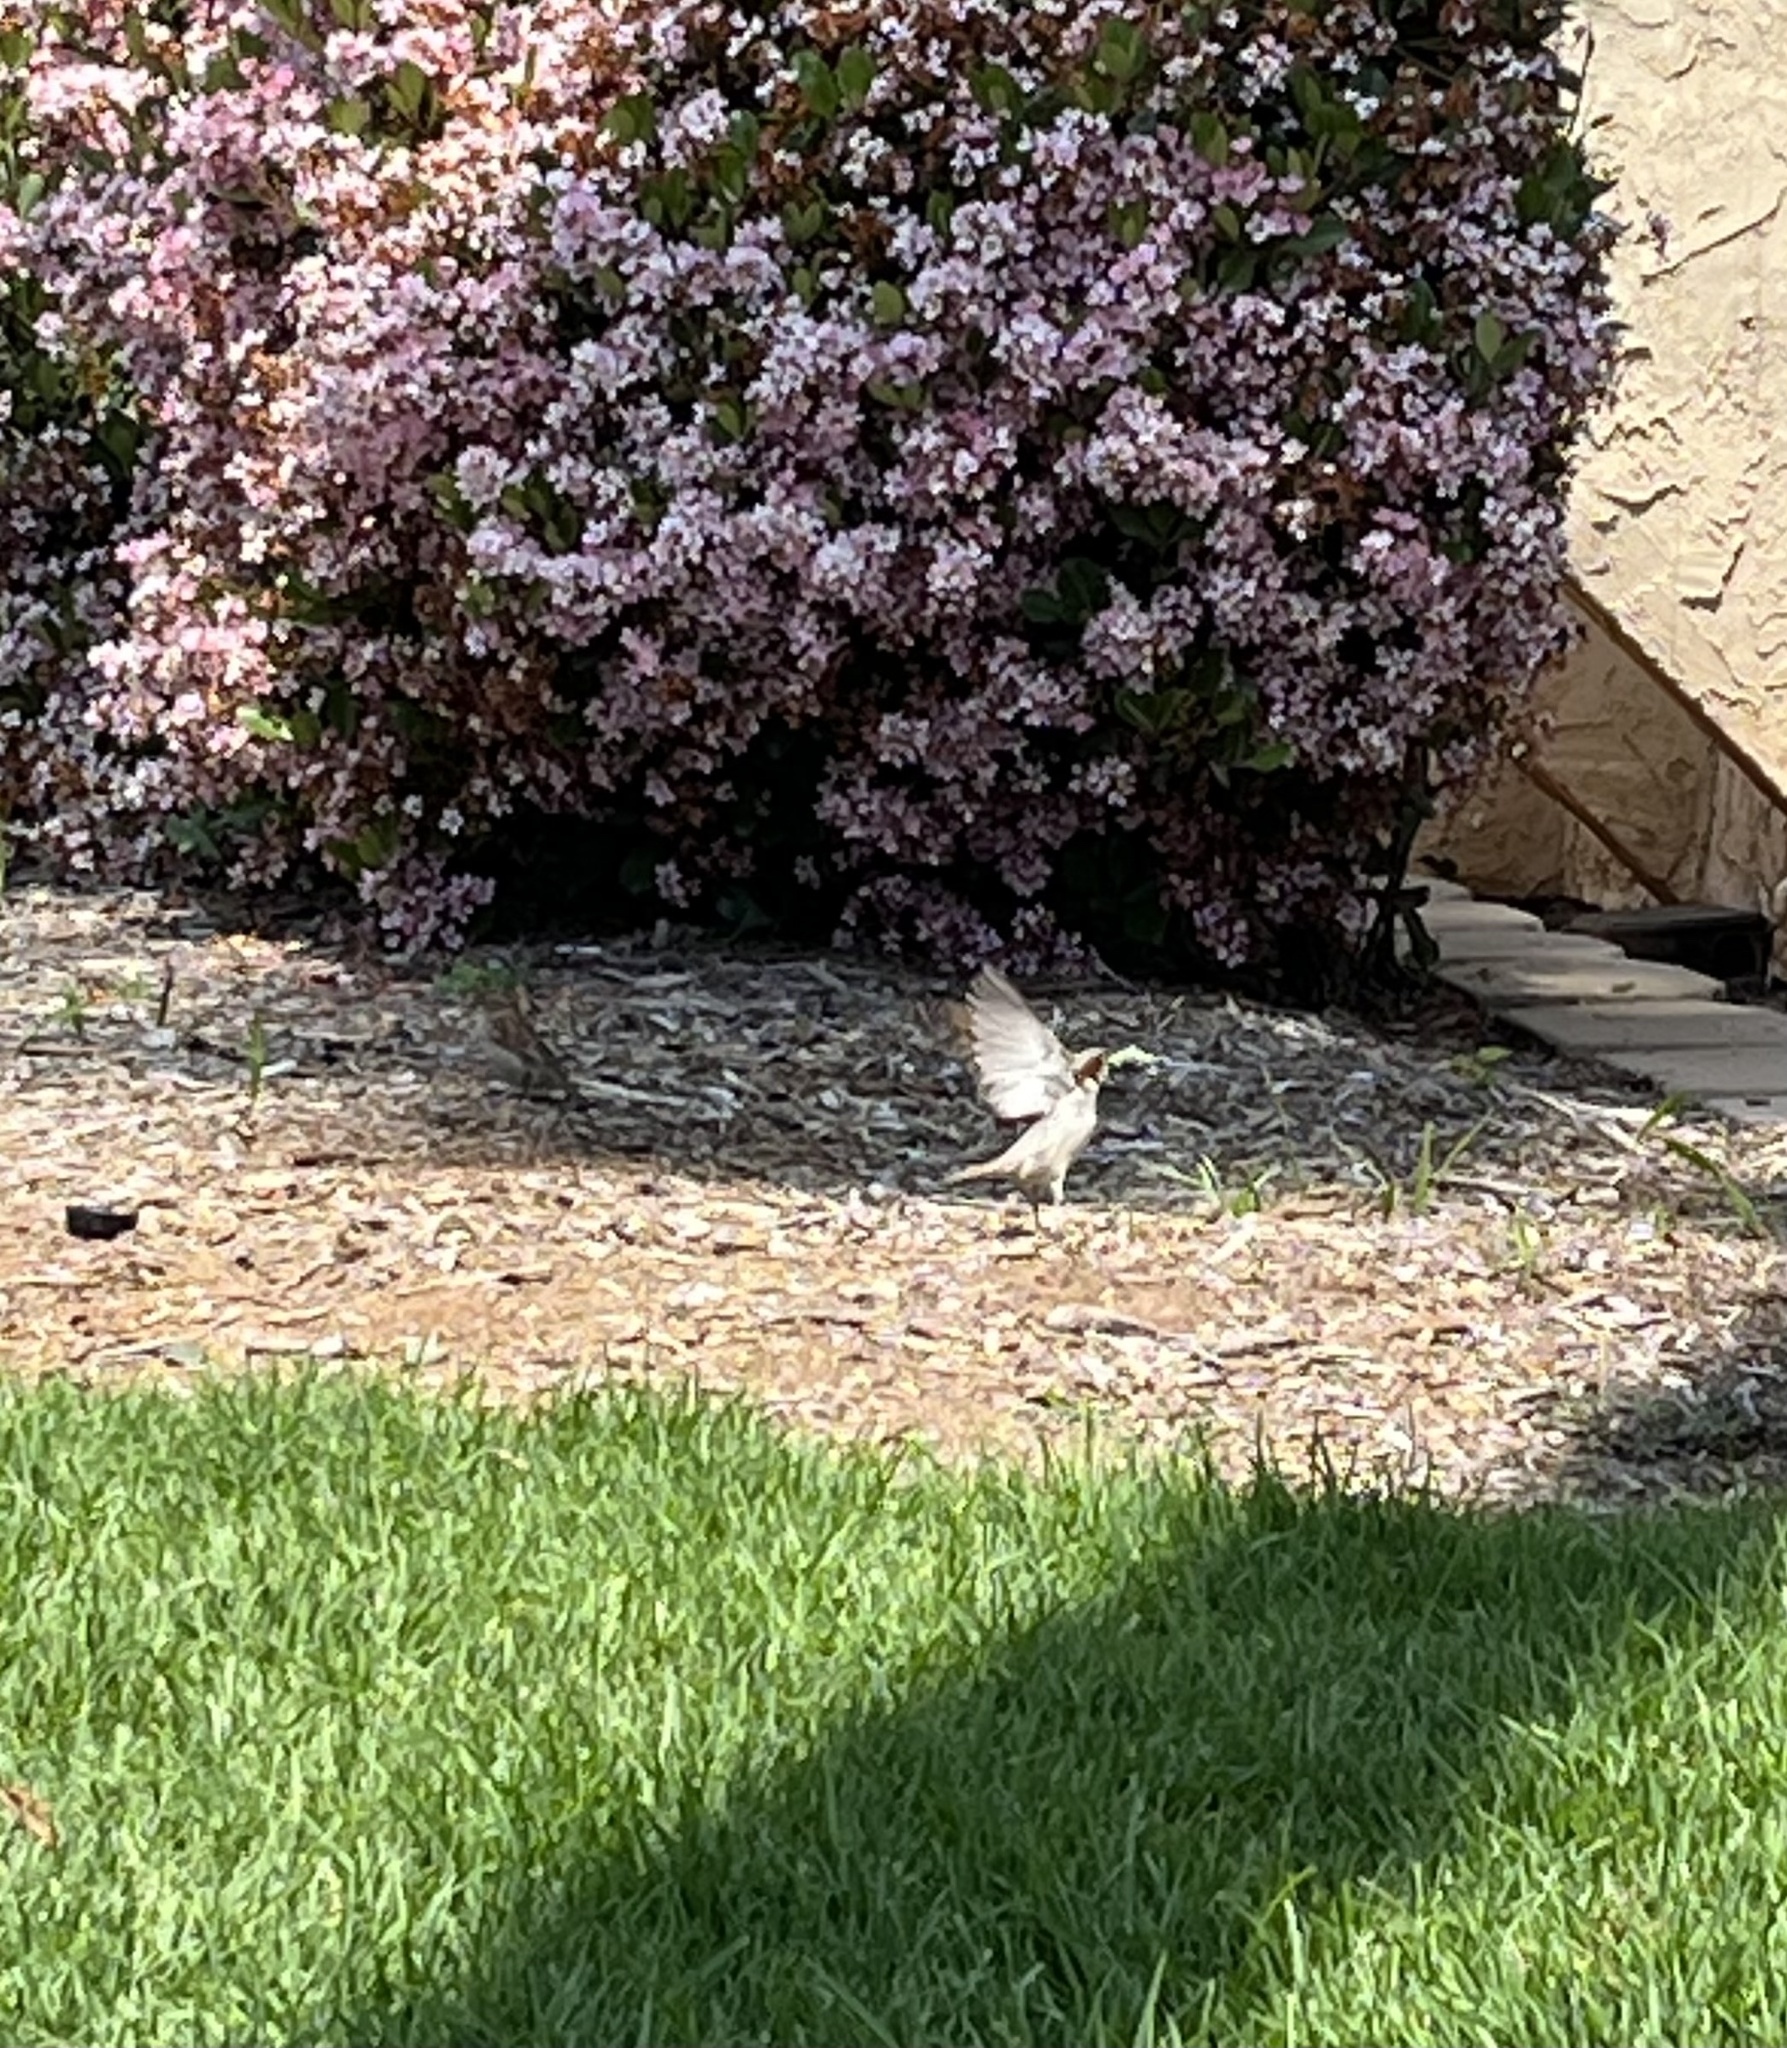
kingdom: Animalia
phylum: Chordata
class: Aves
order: Passeriformes
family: Passeridae
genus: Passer
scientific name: Passer domesticus
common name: House sparrow
